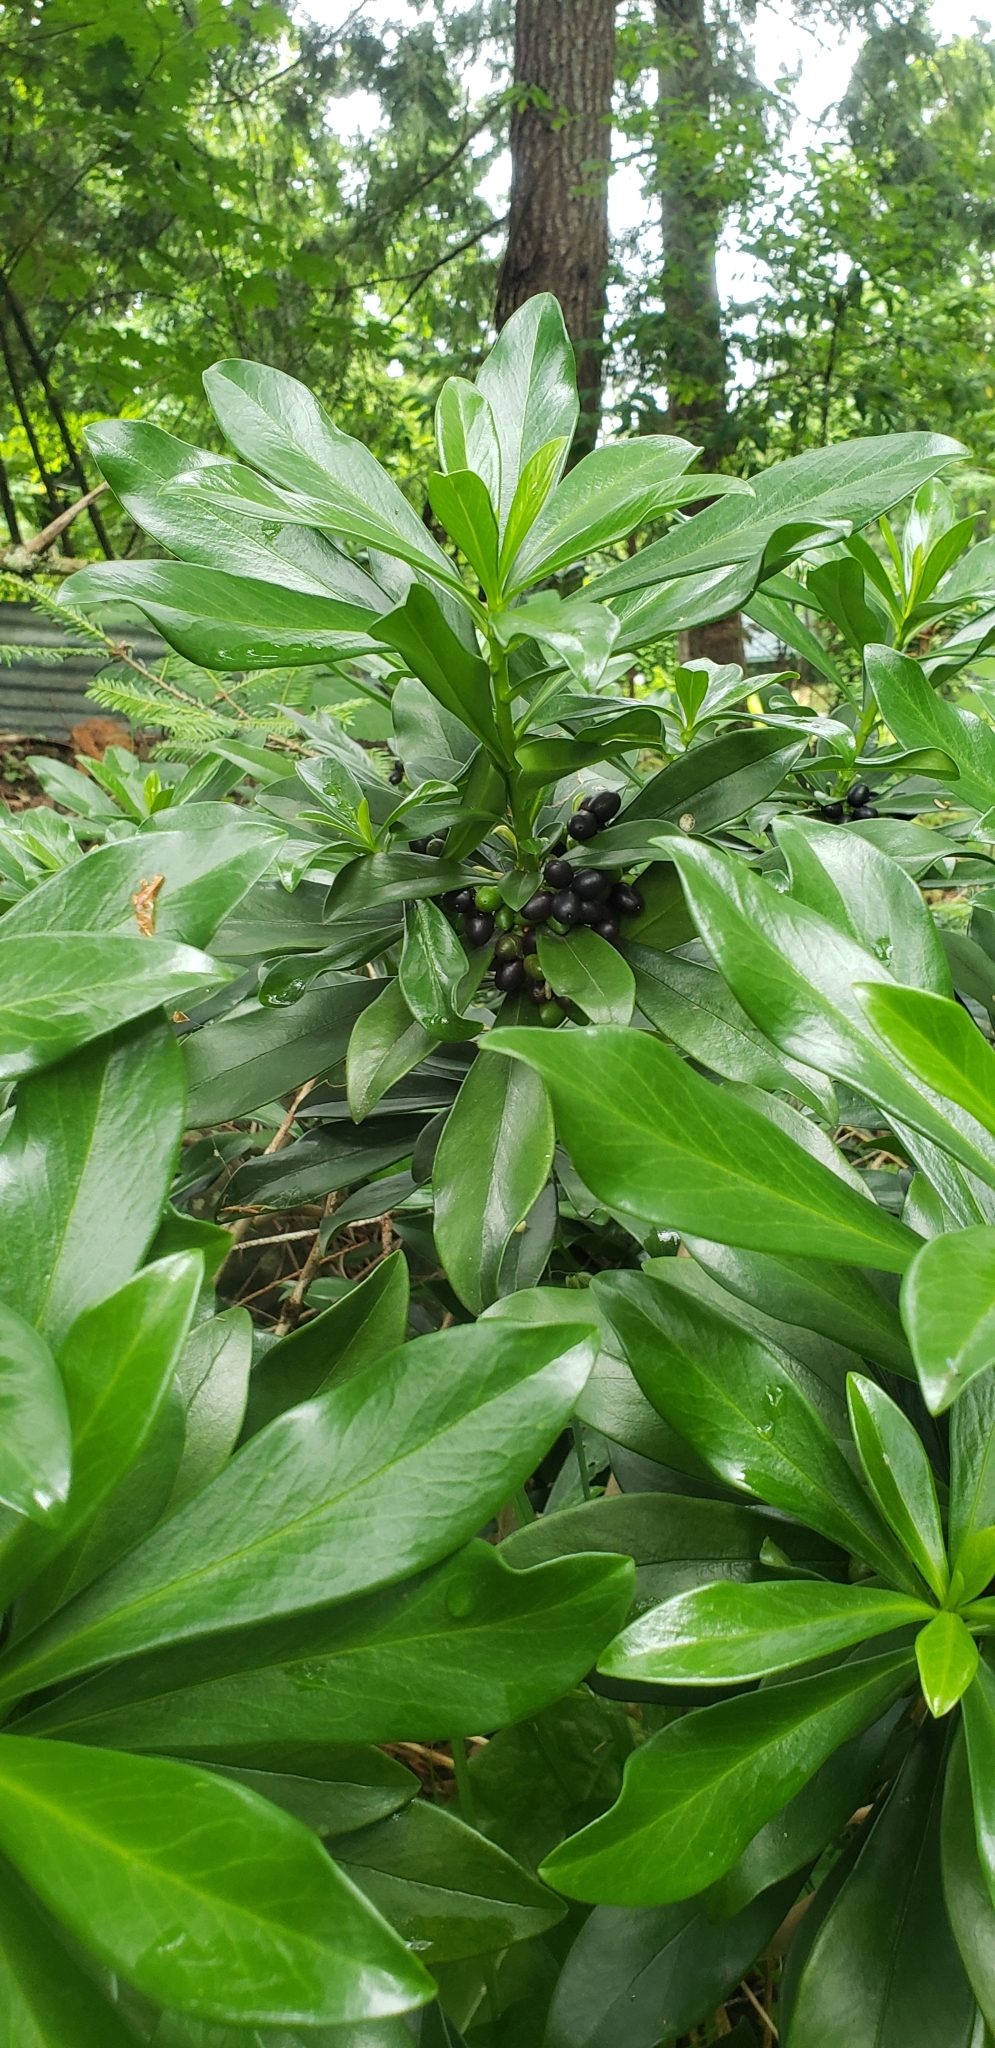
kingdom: Plantae
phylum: Tracheophyta
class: Magnoliopsida
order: Malvales
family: Thymelaeaceae
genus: Daphne
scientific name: Daphne laureola
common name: Spurge-laurel
